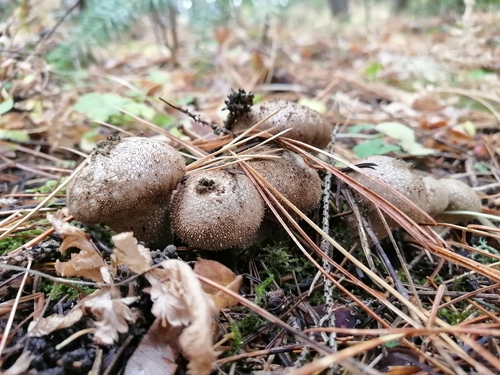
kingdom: Fungi
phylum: Basidiomycota
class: Agaricomycetes
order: Agaricales
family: Lycoperdaceae
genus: Lycoperdon
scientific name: Lycoperdon perlatum
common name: Common puffball
